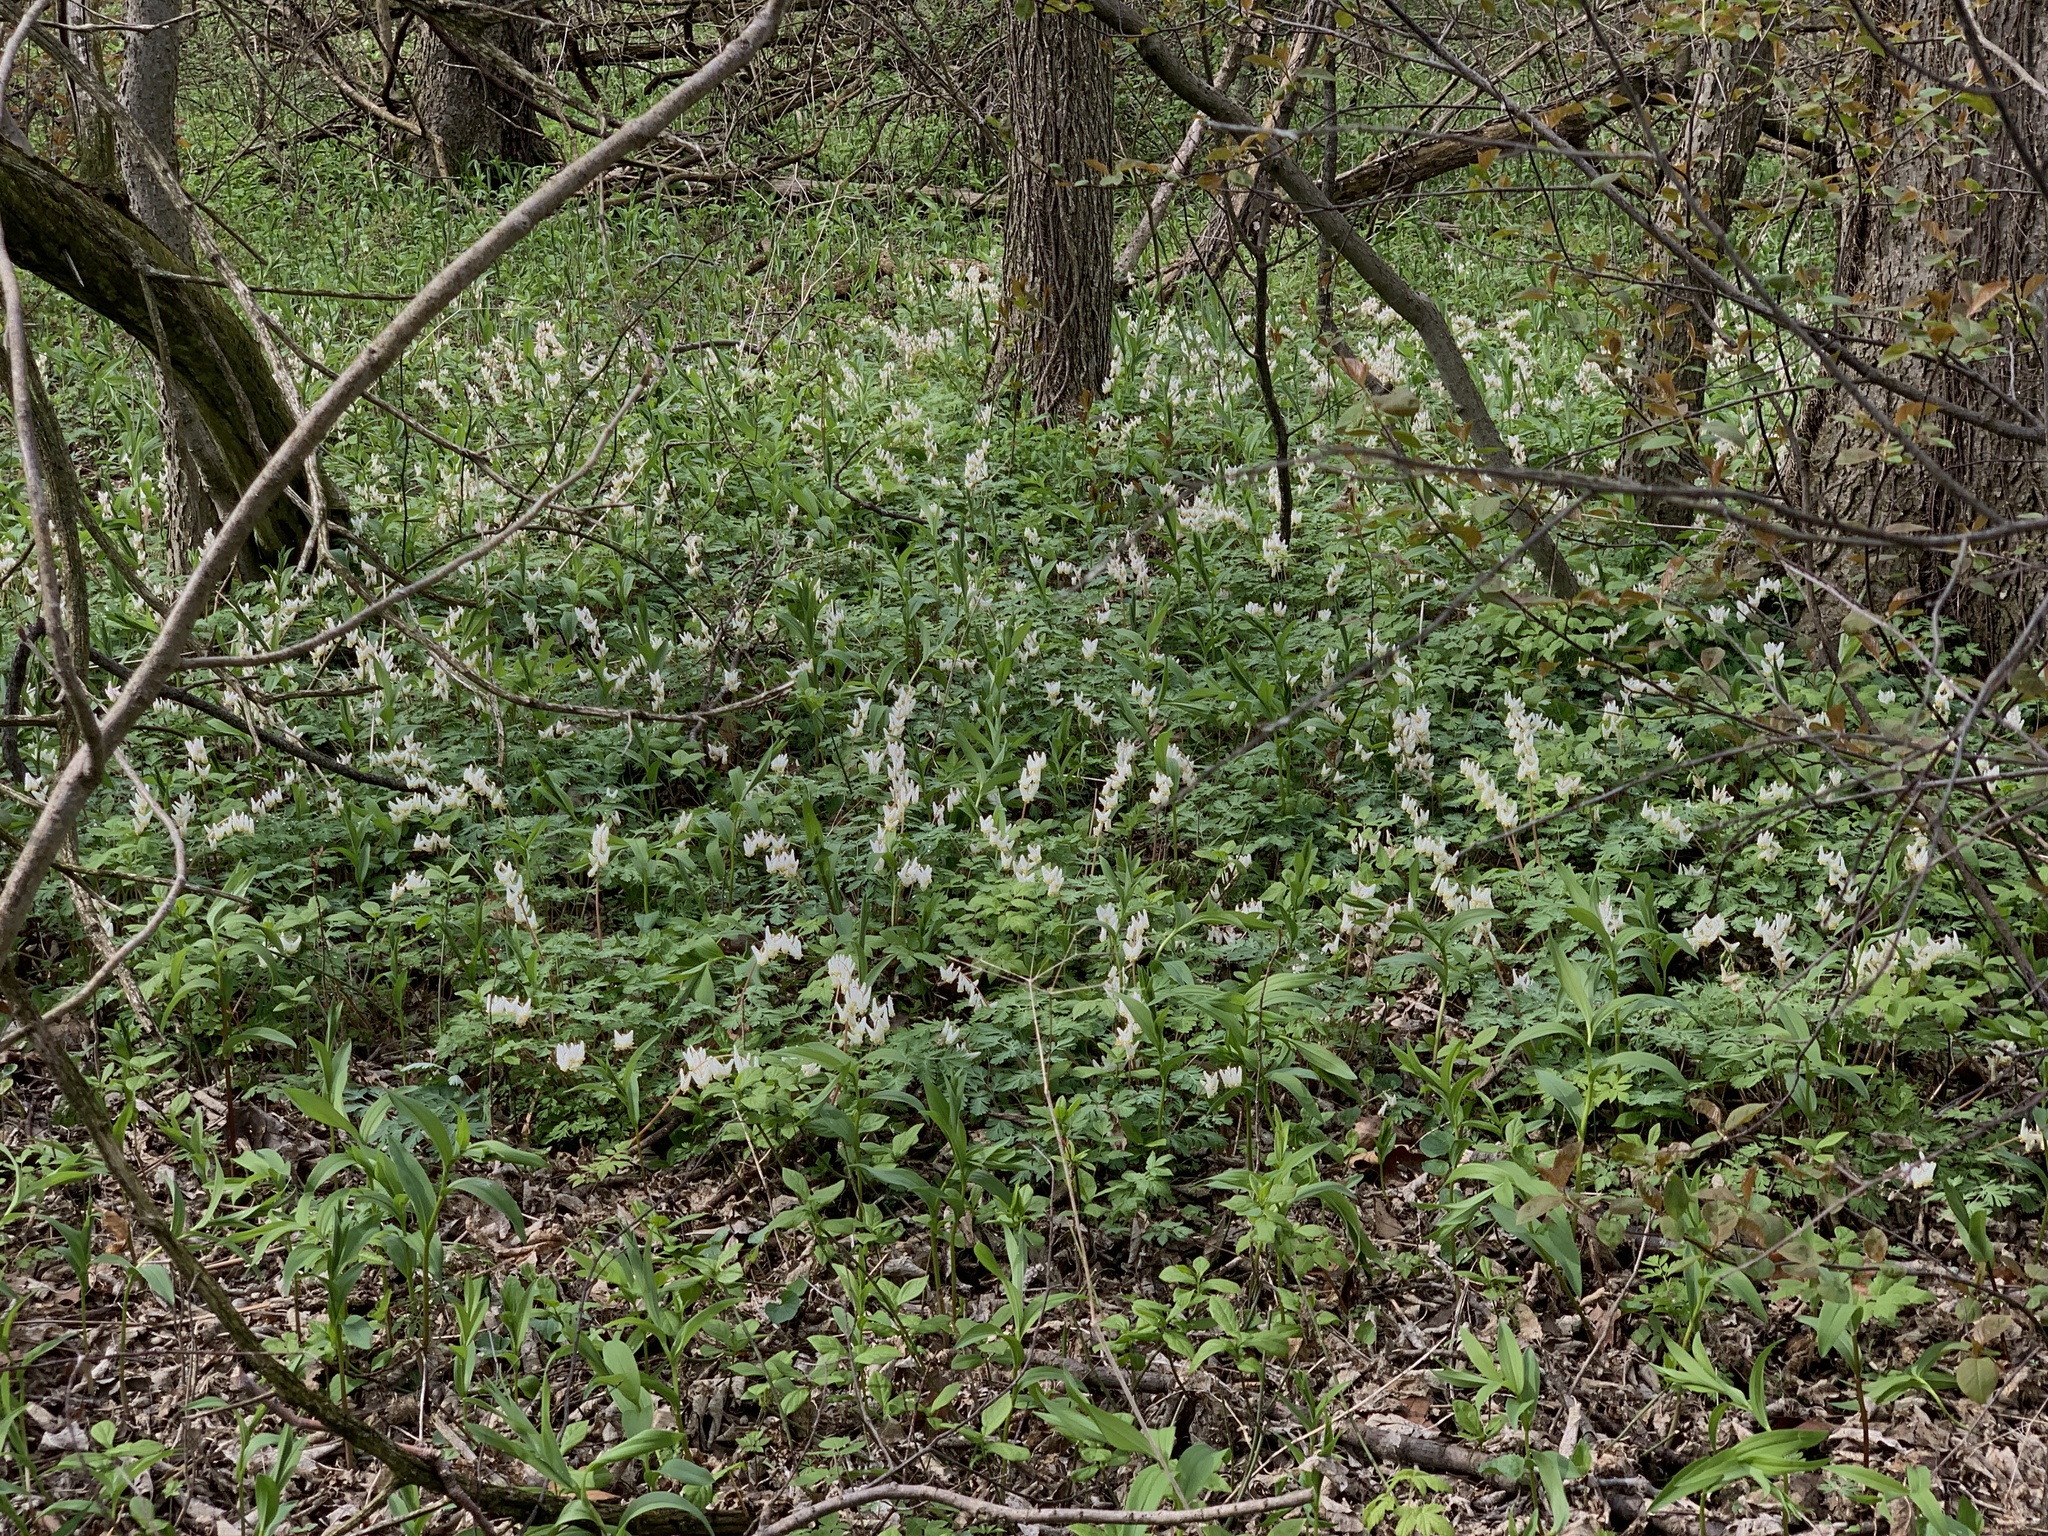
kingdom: Plantae
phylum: Tracheophyta
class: Magnoliopsida
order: Ranunculales
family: Papaveraceae
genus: Dicentra
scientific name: Dicentra cucullaria
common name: Dutchman's breeches
